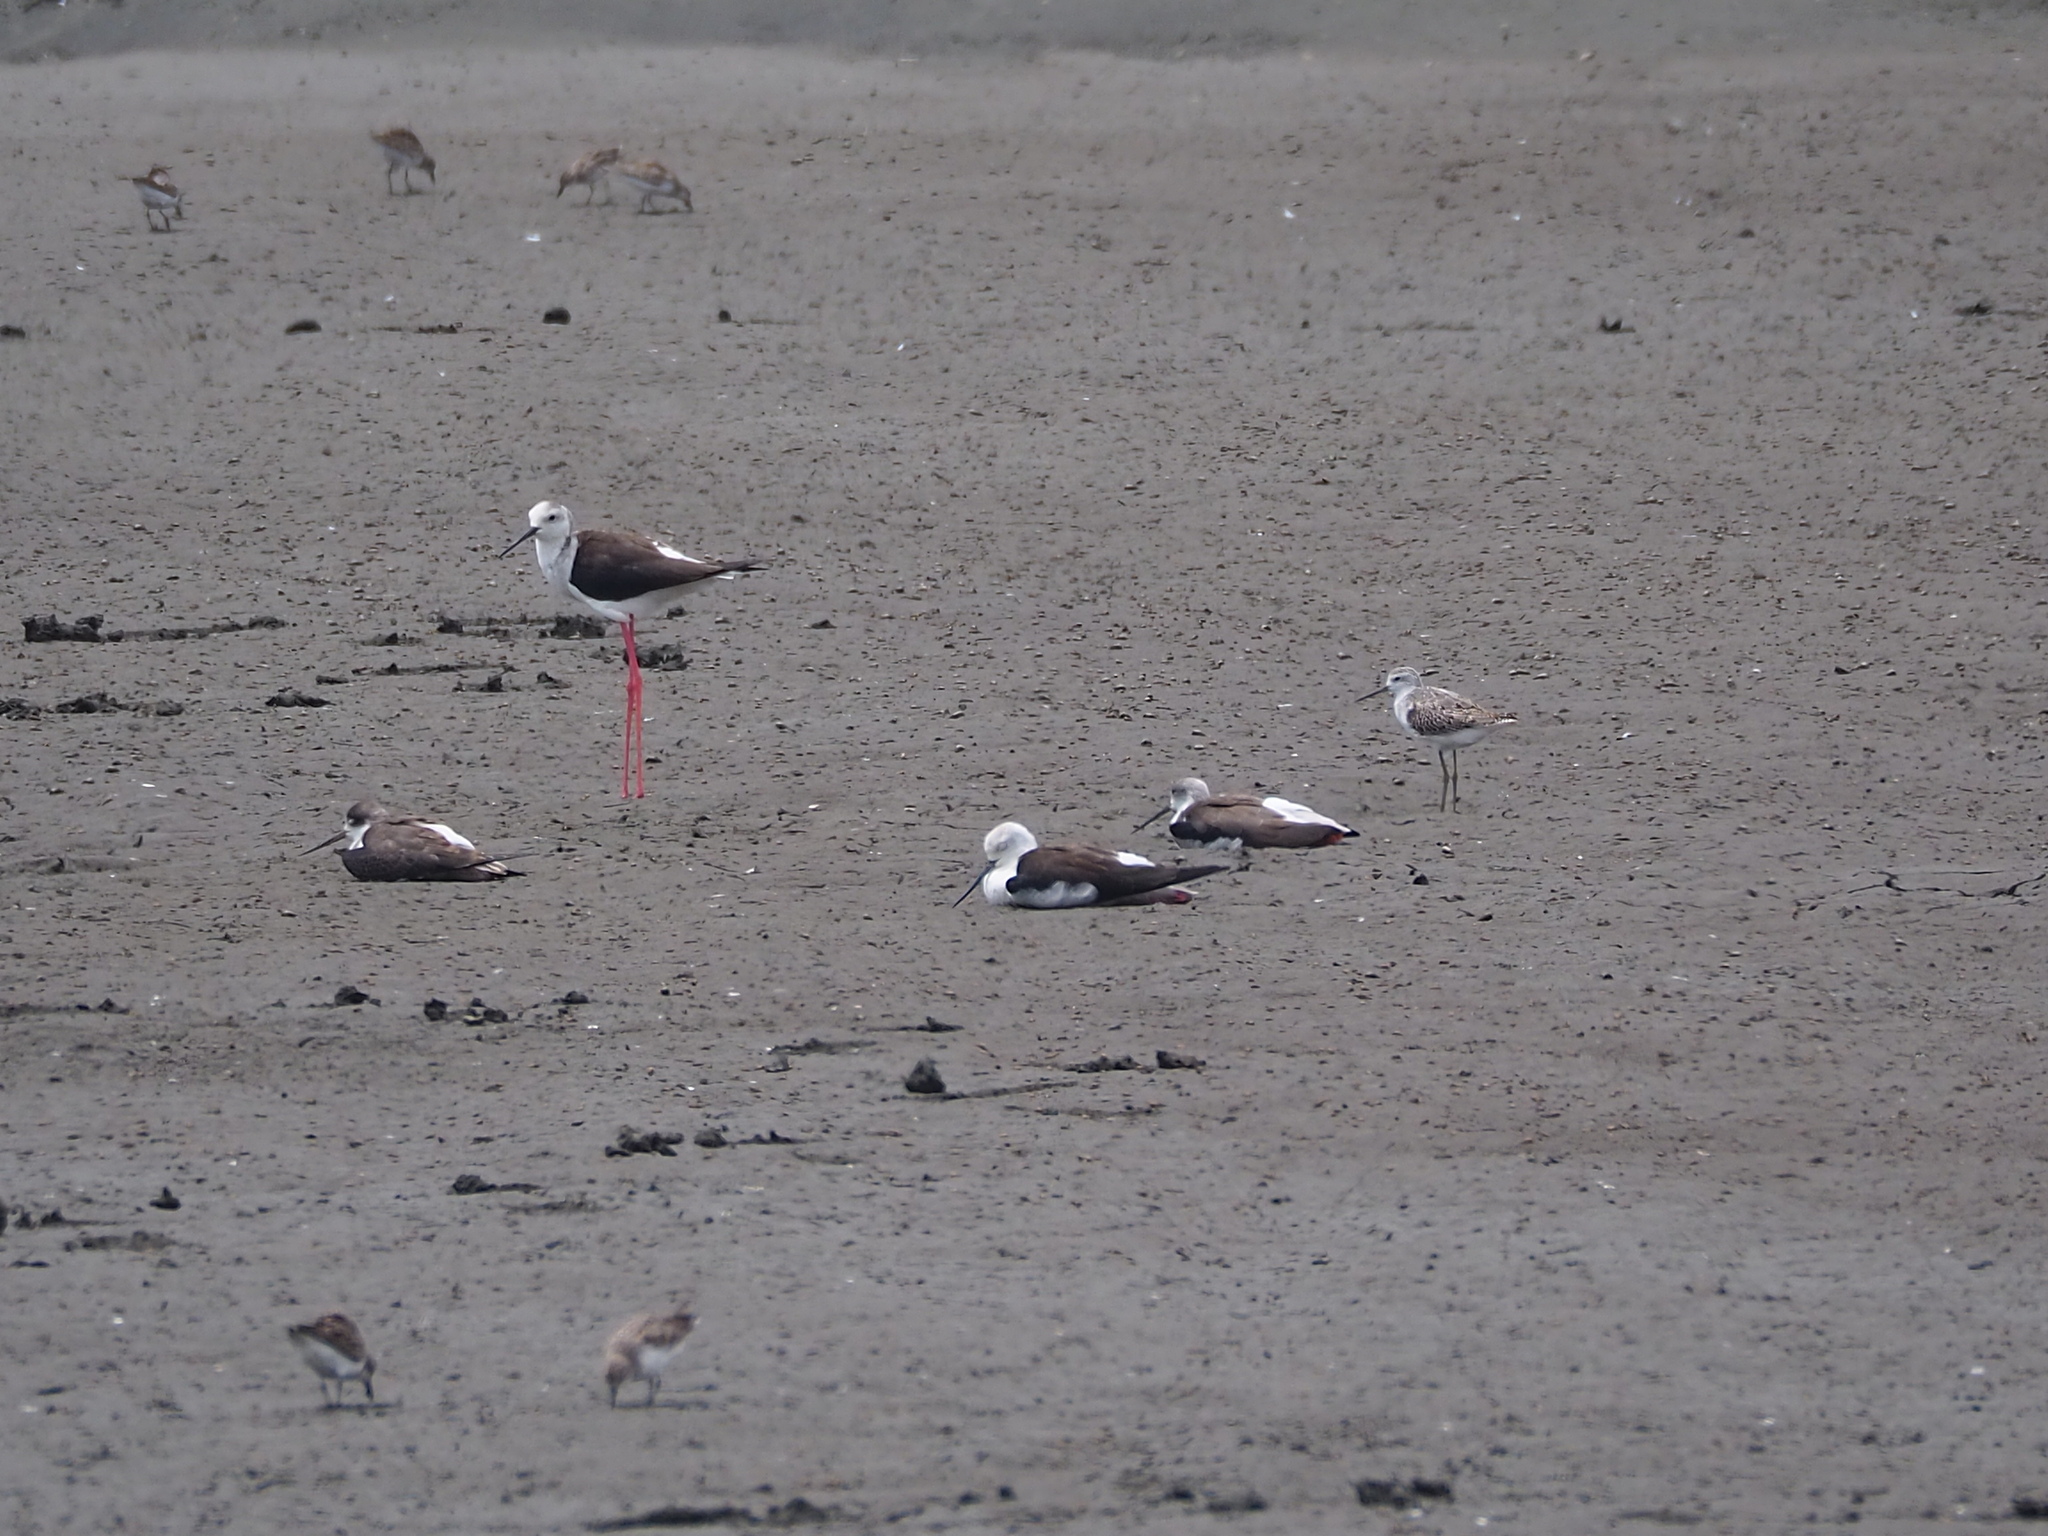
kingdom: Animalia
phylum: Chordata
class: Aves
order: Charadriiformes
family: Recurvirostridae
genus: Himantopus
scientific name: Himantopus himantopus
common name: Black-winged stilt
